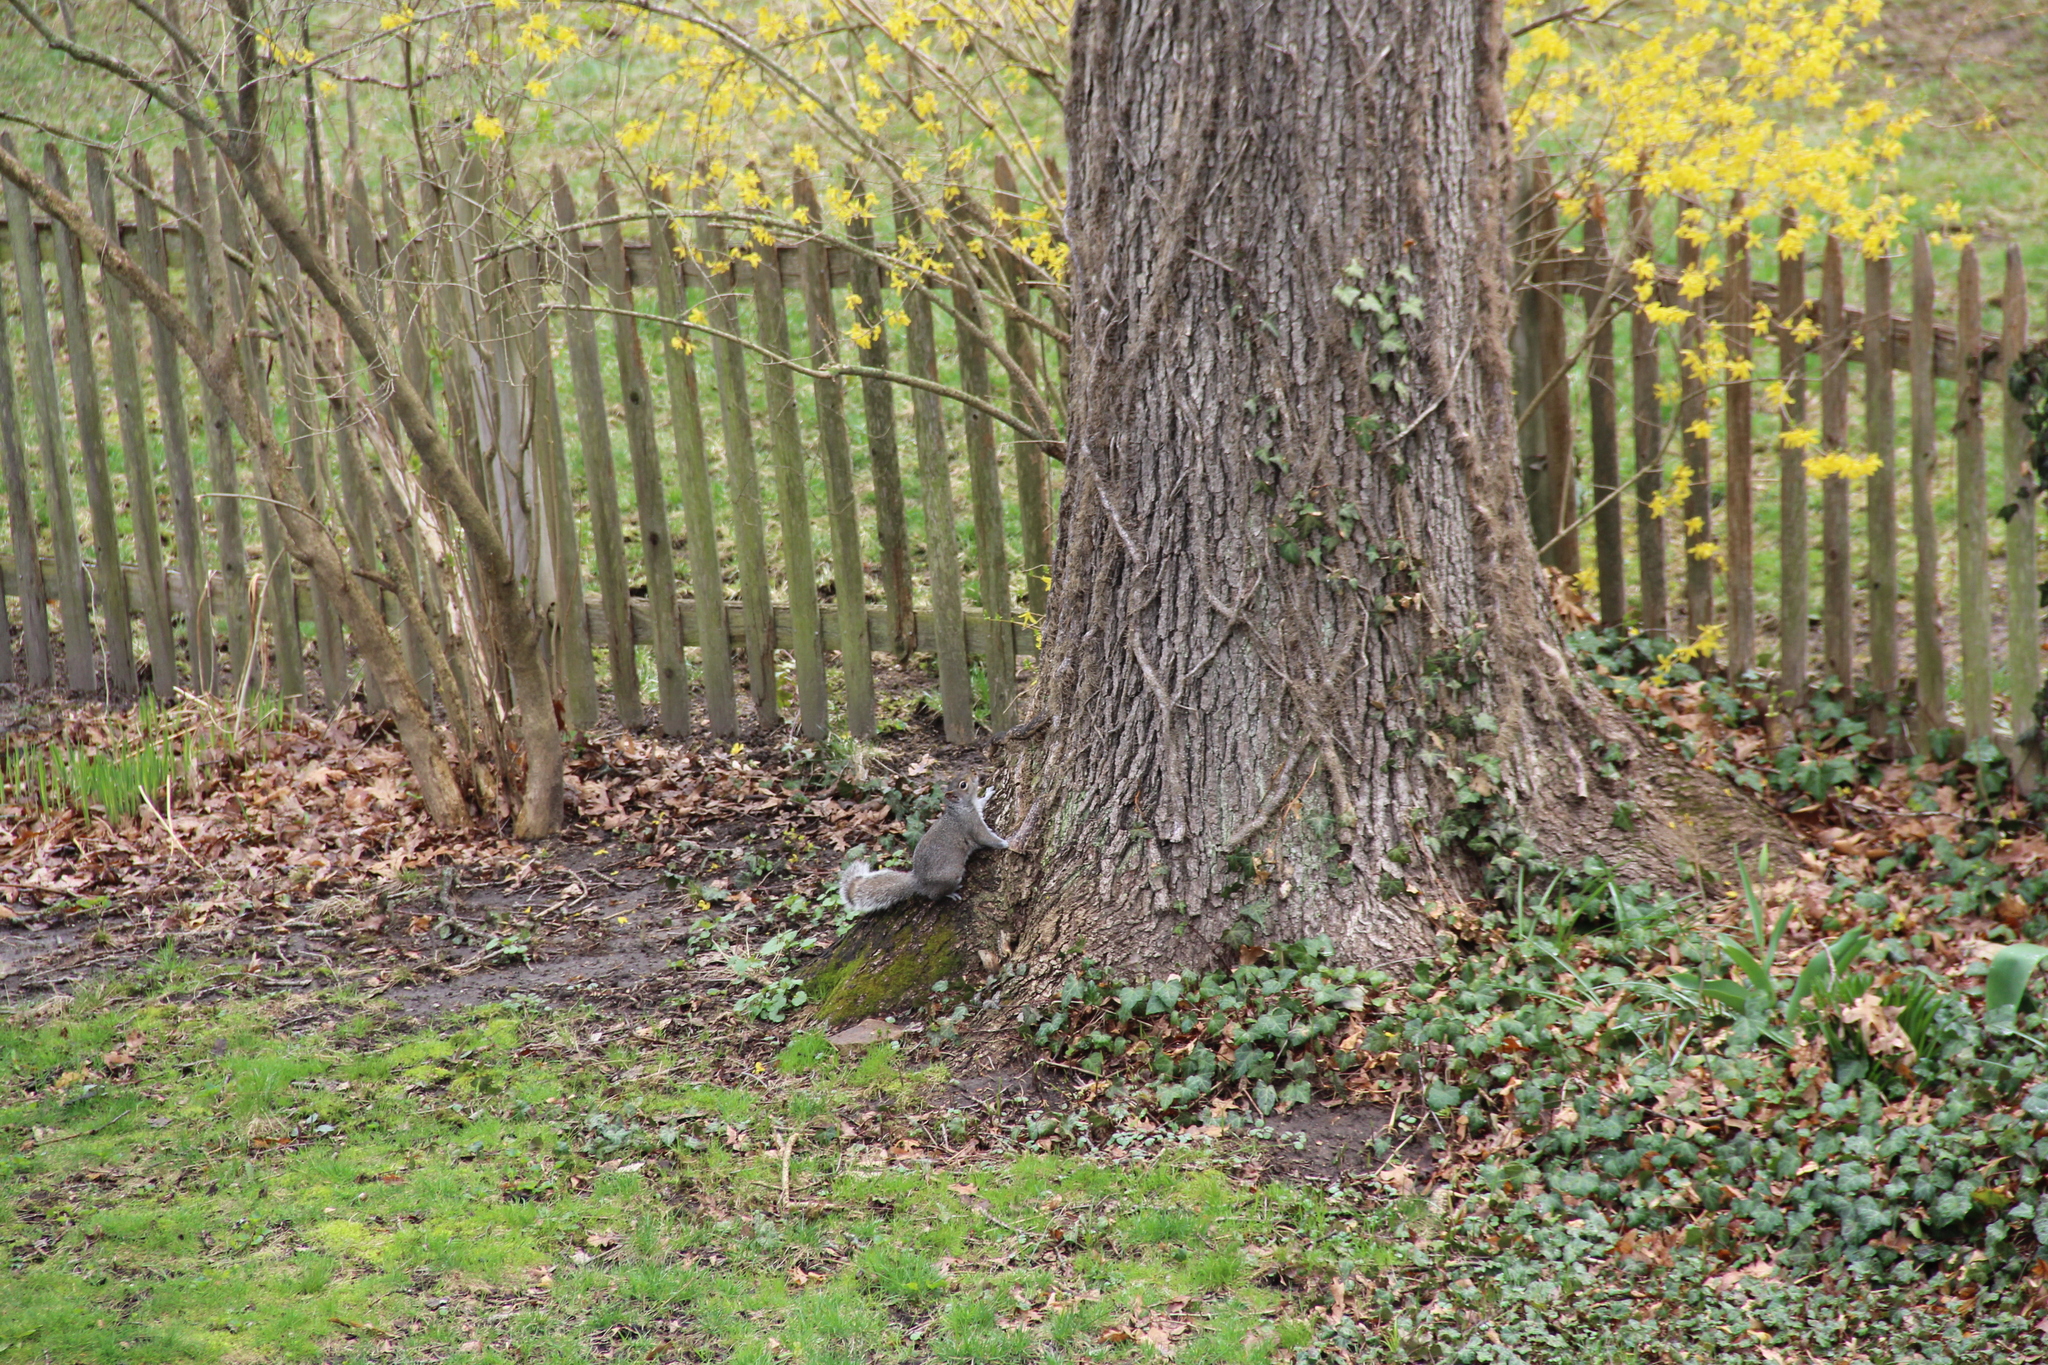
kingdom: Animalia
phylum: Chordata
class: Mammalia
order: Rodentia
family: Sciuridae
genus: Sciurus
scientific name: Sciurus carolinensis
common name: Eastern gray squirrel
